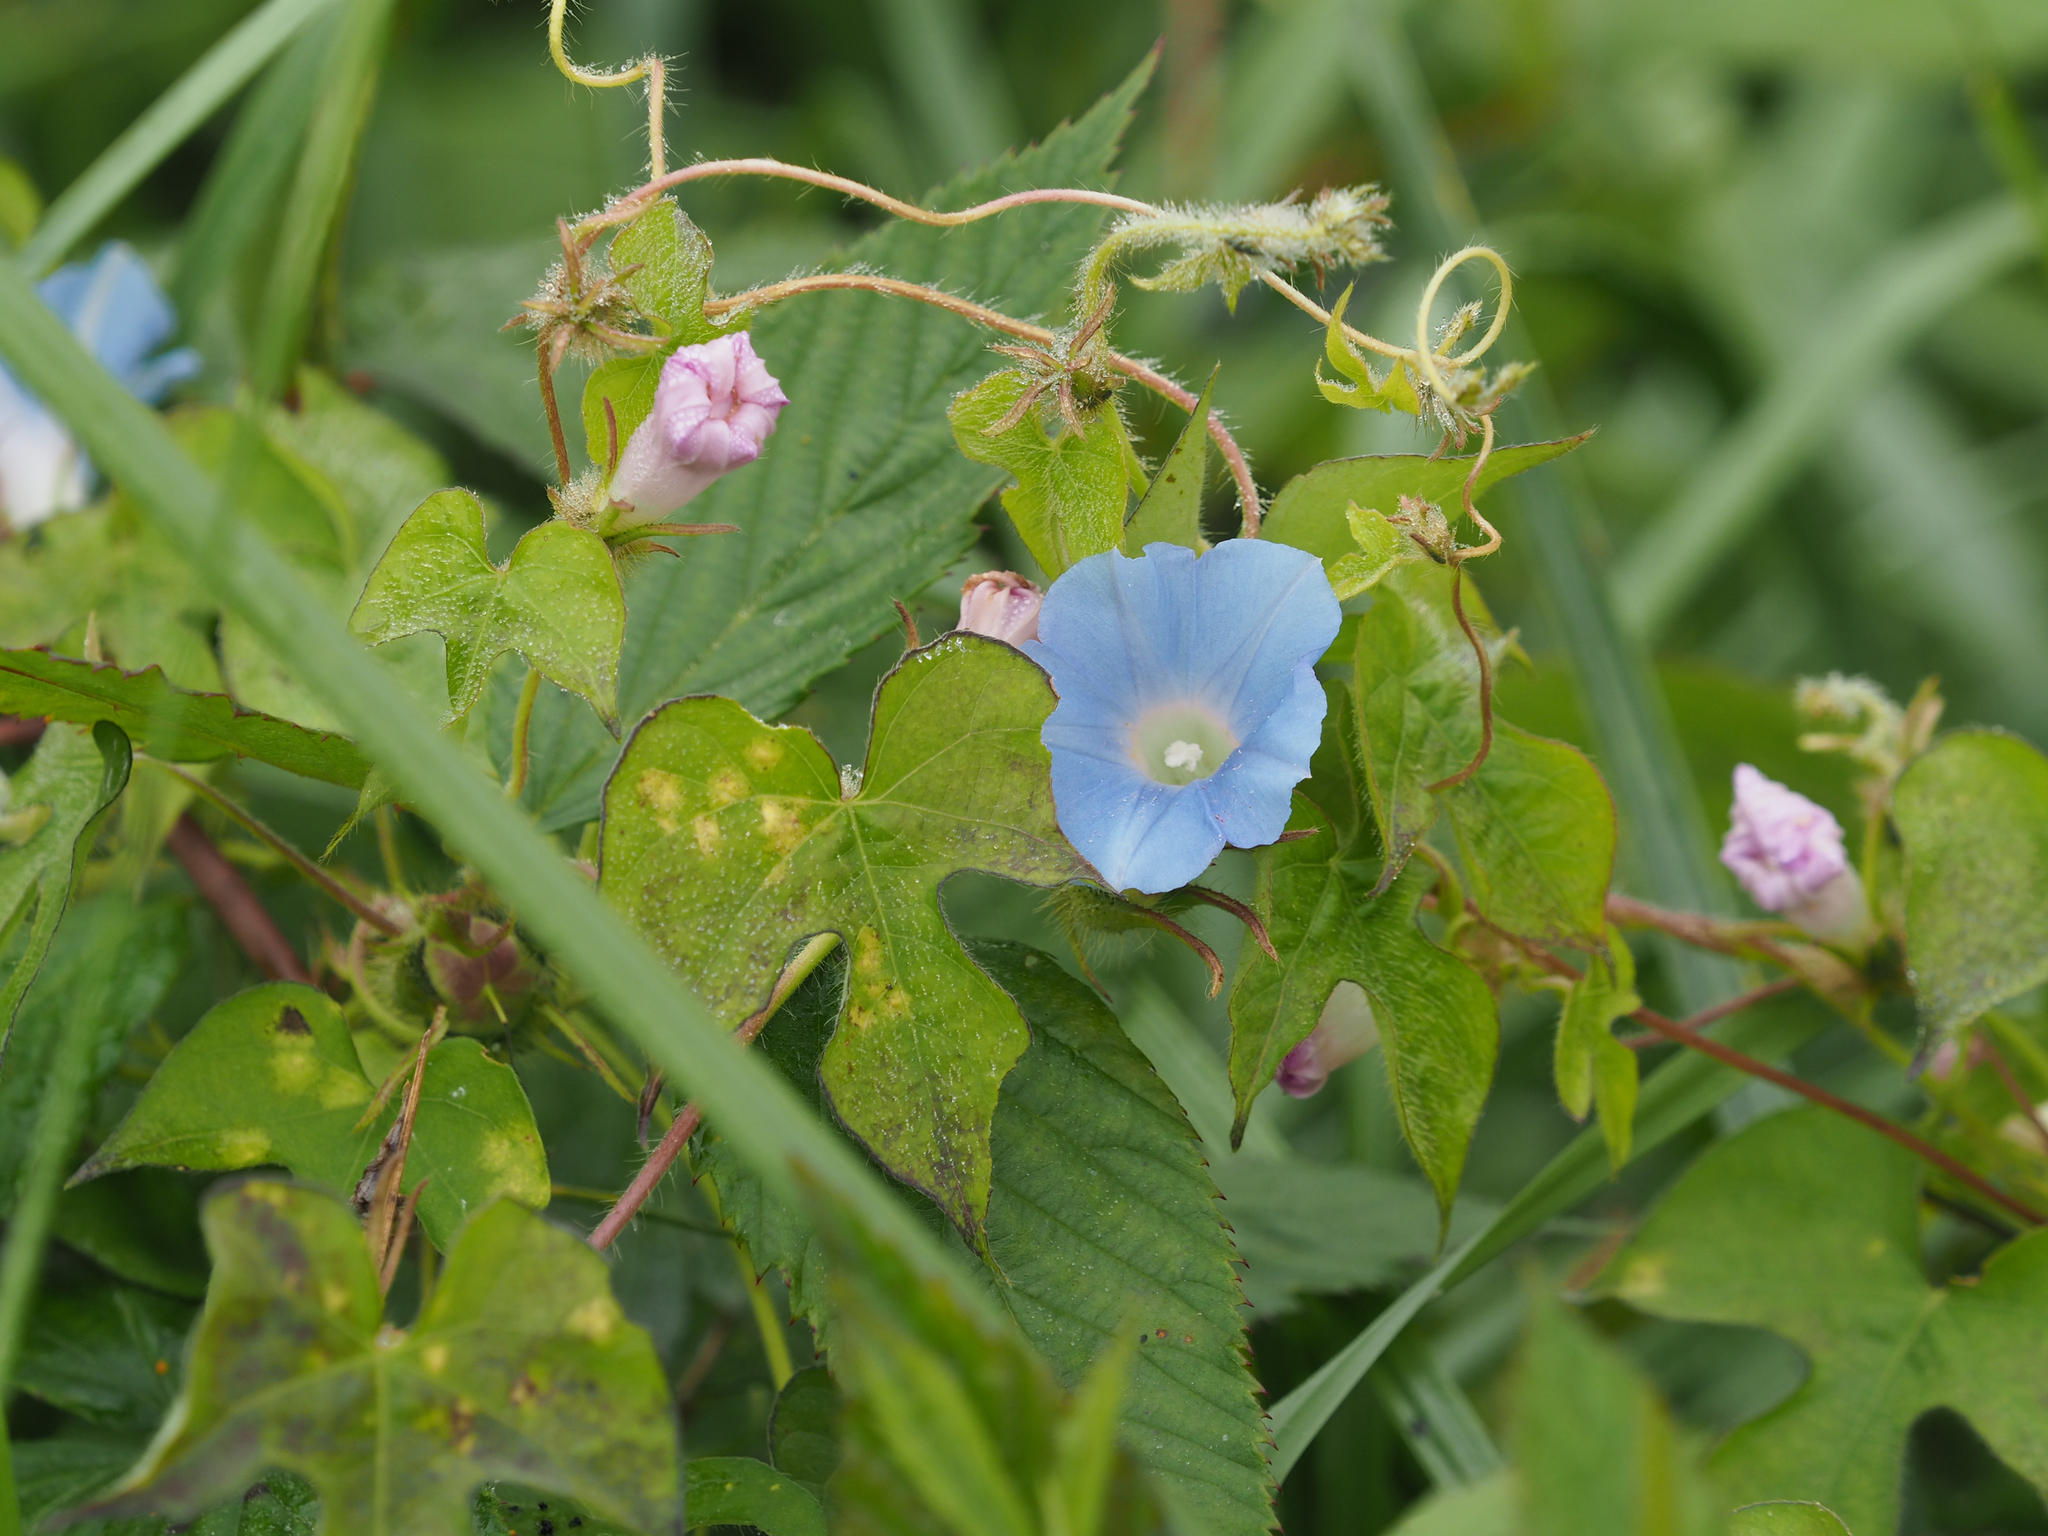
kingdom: Plantae
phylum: Tracheophyta
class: Magnoliopsida
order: Solanales
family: Convolvulaceae
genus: Ipomoea
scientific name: Ipomoea hederacea
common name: Ivy-leaved morning-glory
